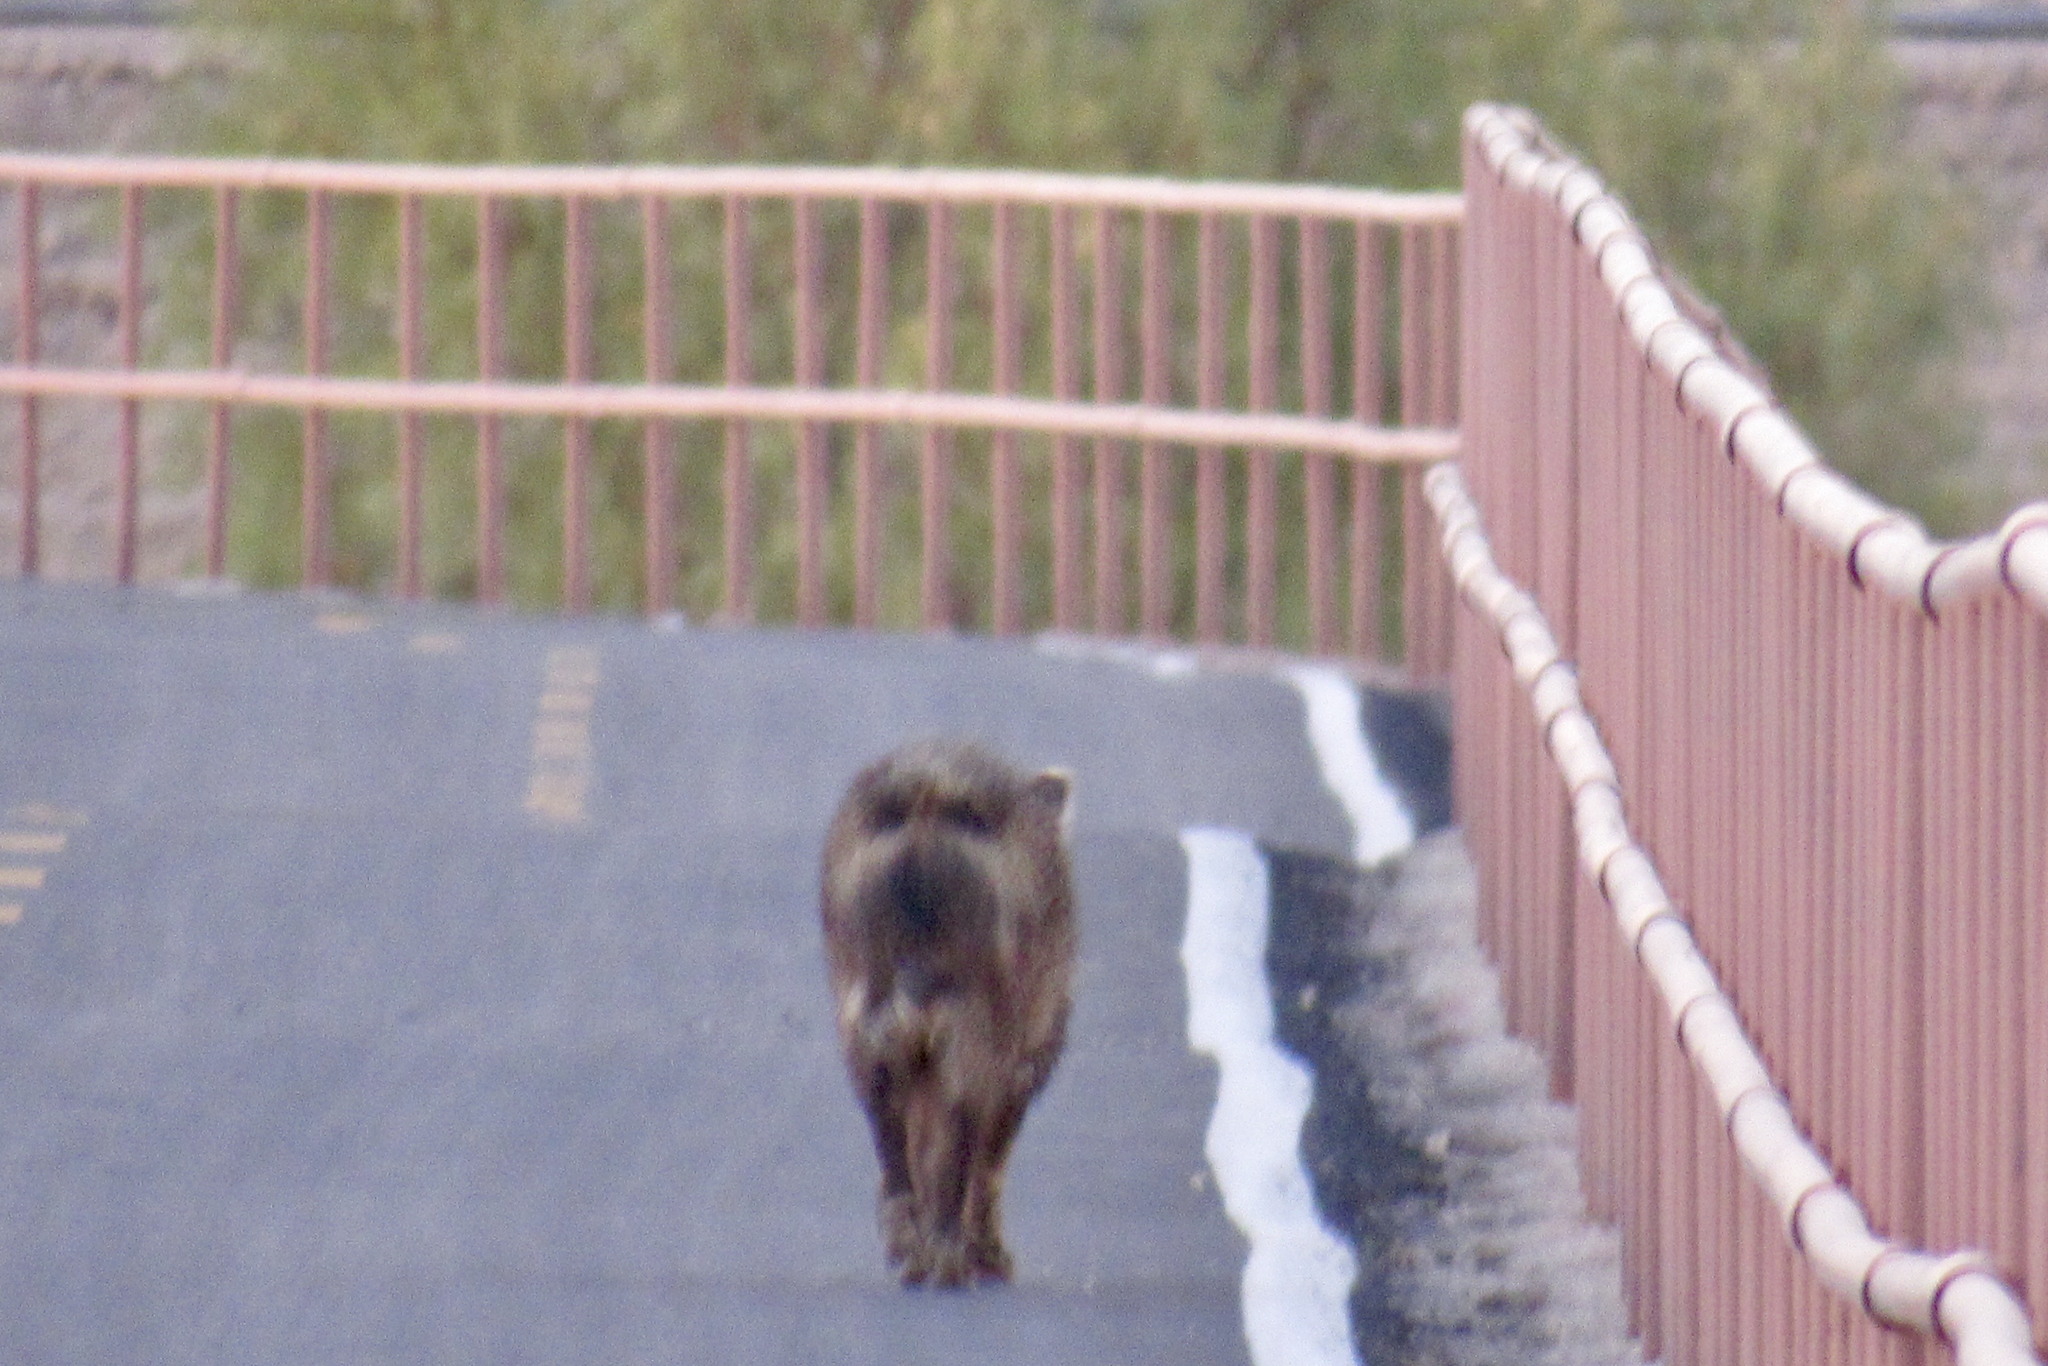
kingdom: Animalia
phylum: Chordata
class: Mammalia
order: Artiodactyla
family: Tayassuidae
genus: Pecari
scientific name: Pecari tajacu
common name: Collared peccary
